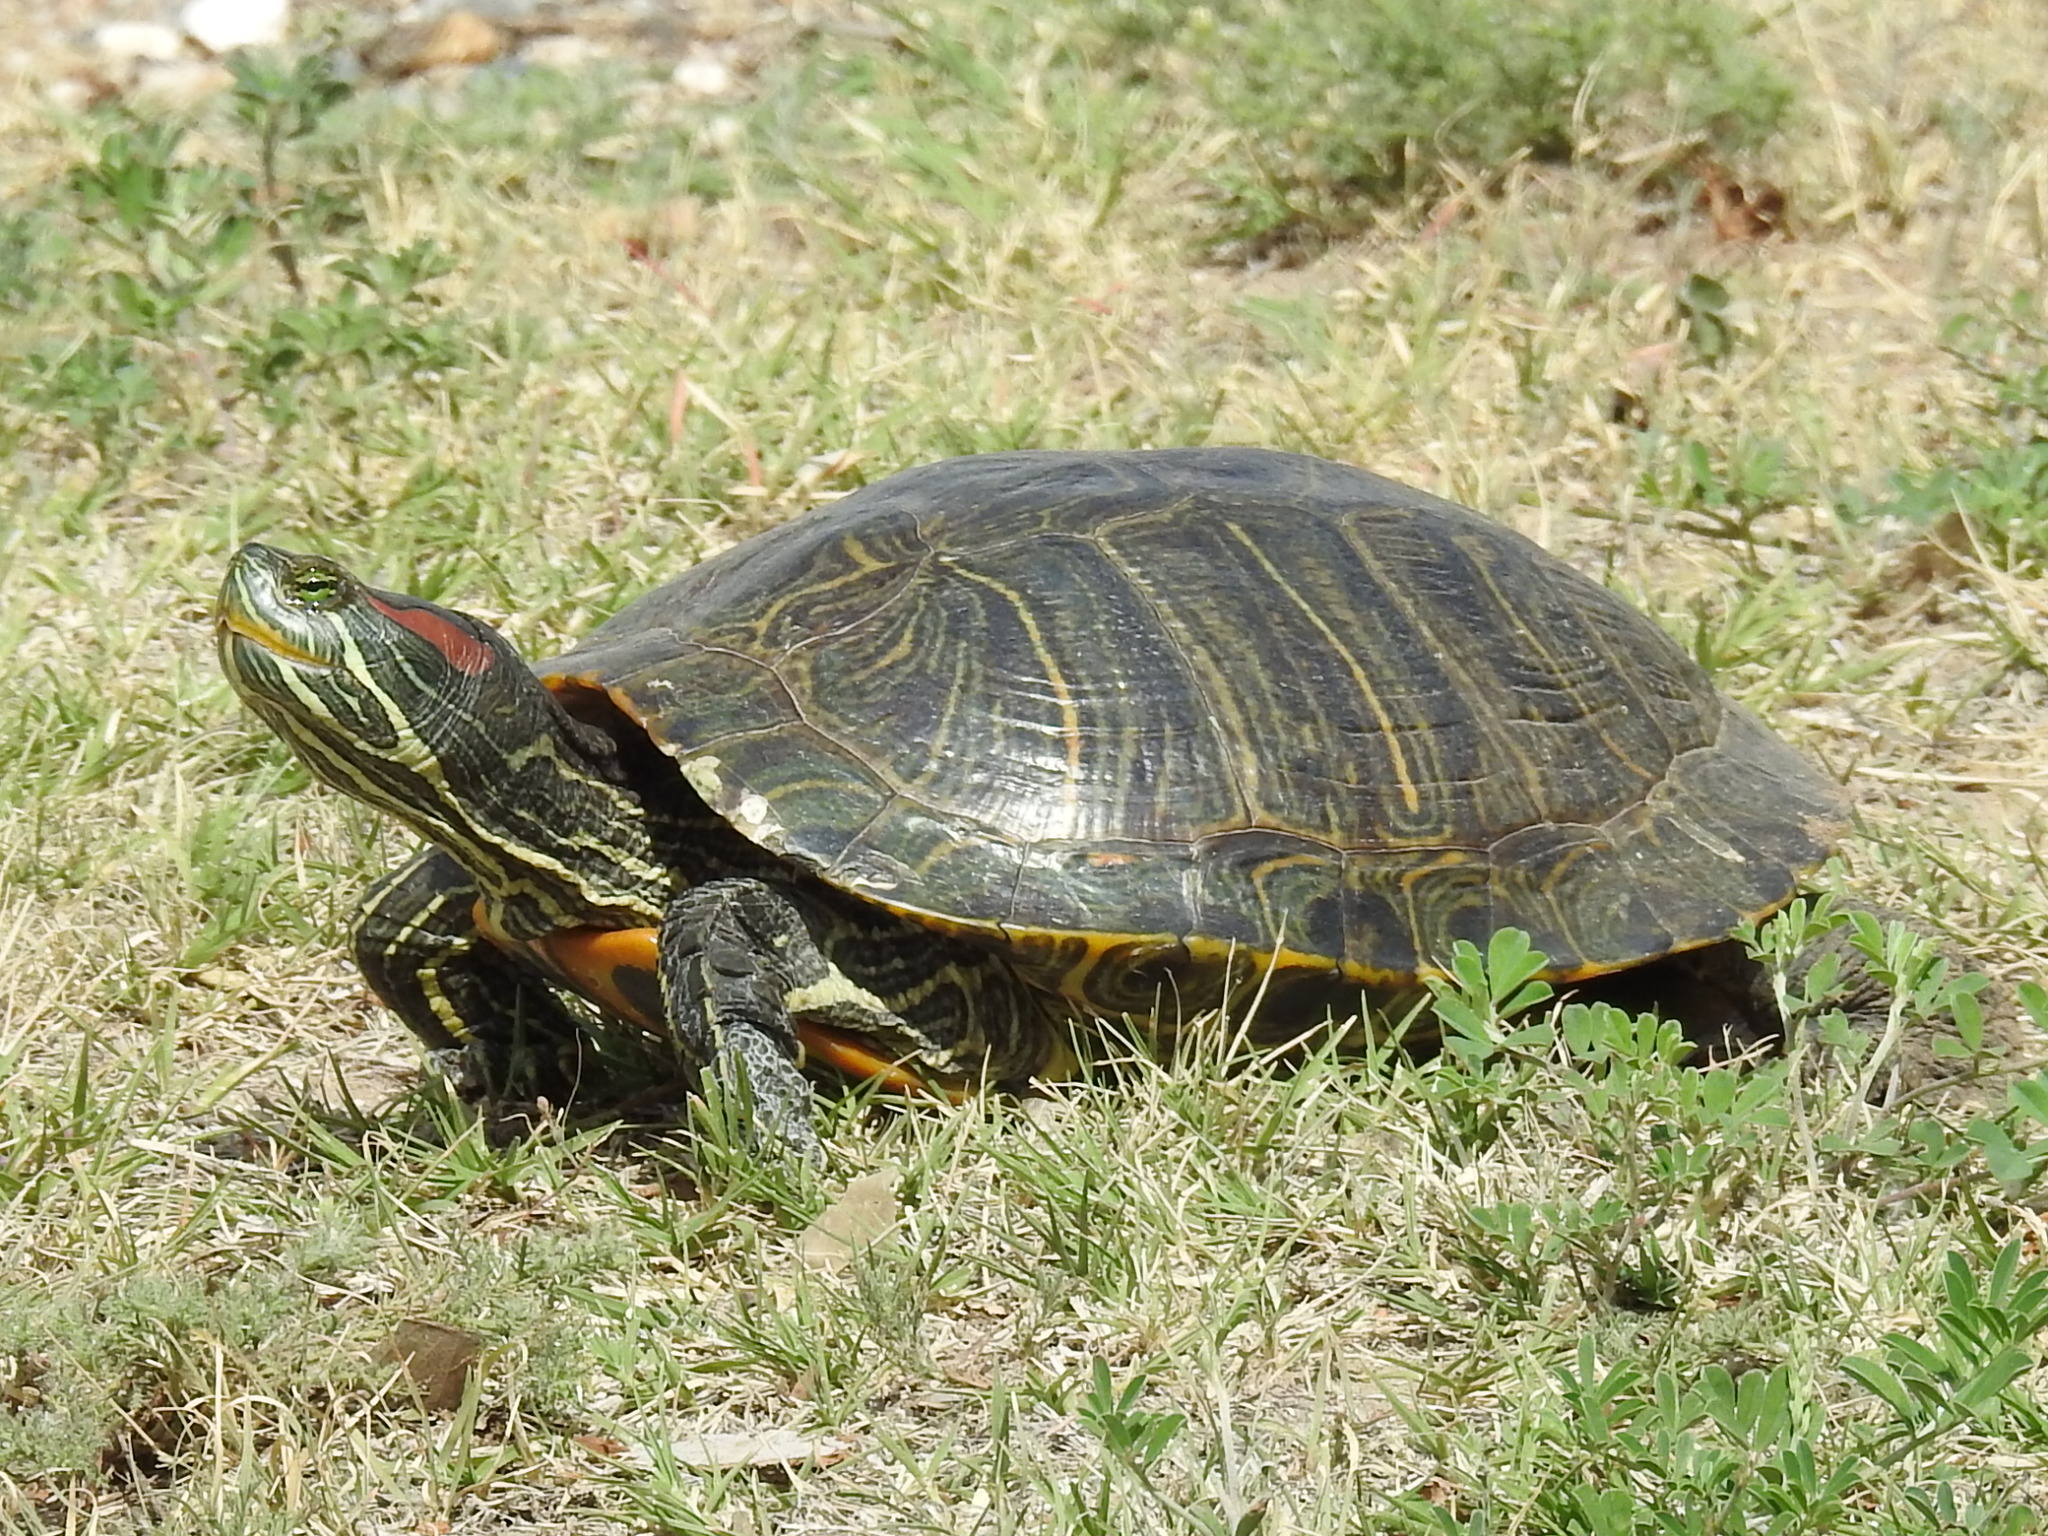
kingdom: Animalia
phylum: Chordata
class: Testudines
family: Emydidae
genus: Trachemys
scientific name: Trachemys scripta
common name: Slider
